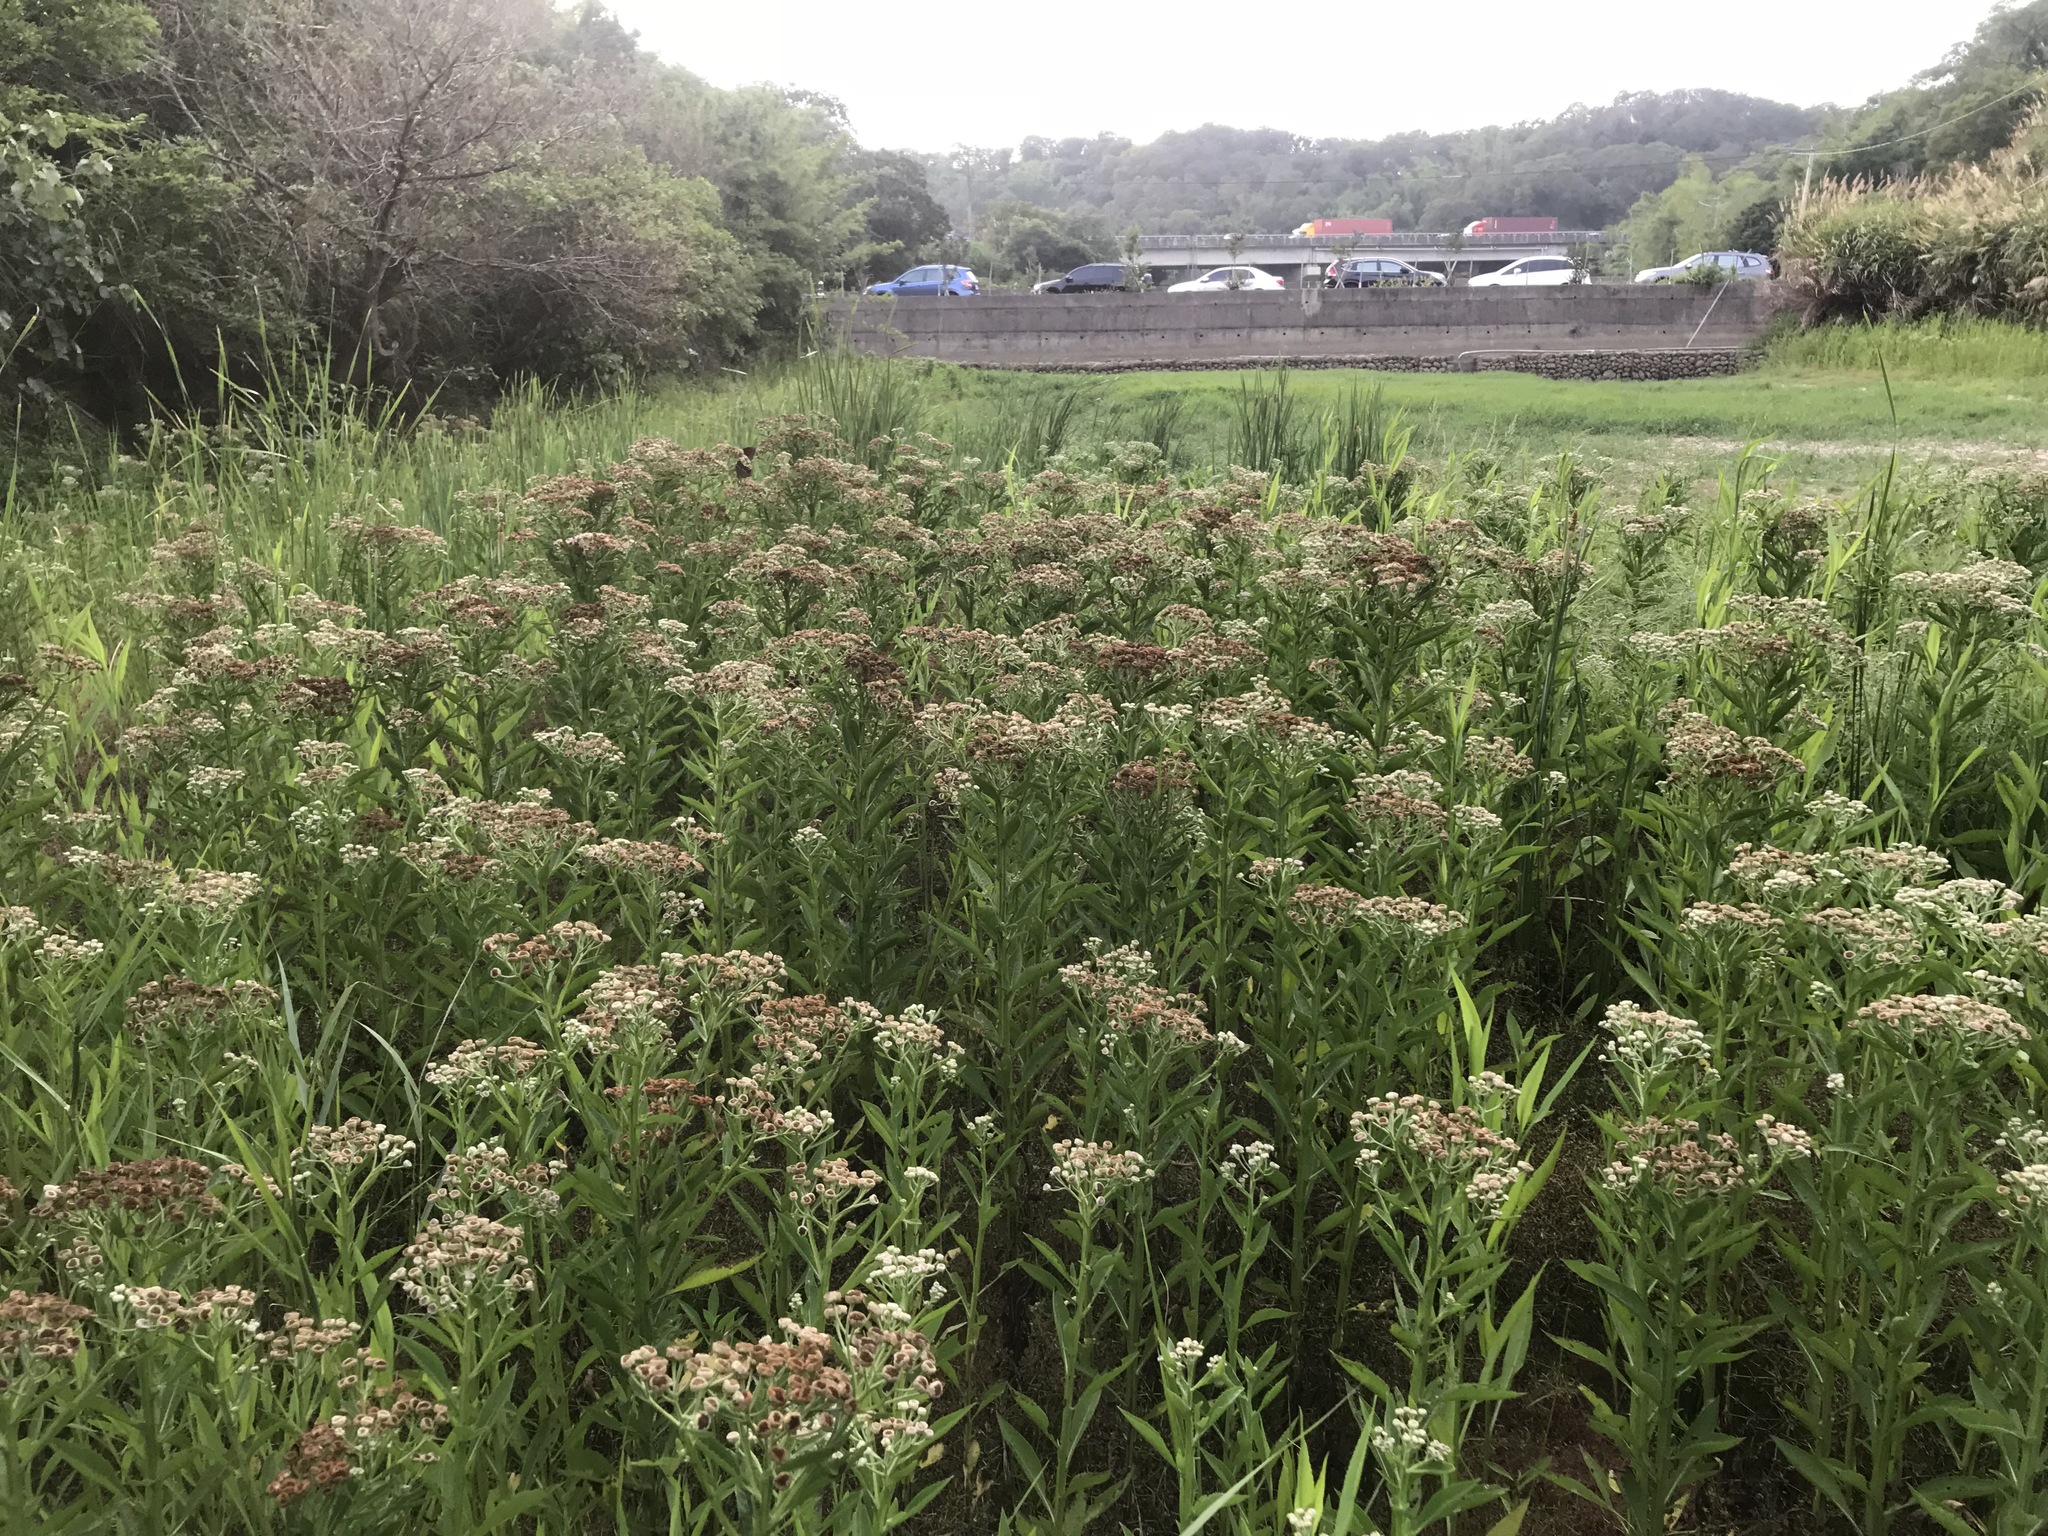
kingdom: Plantae
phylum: Tracheophyta
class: Magnoliopsida
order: Asterales
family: Asteraceae
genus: Pluchea
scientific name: Pluchea sagittalis
